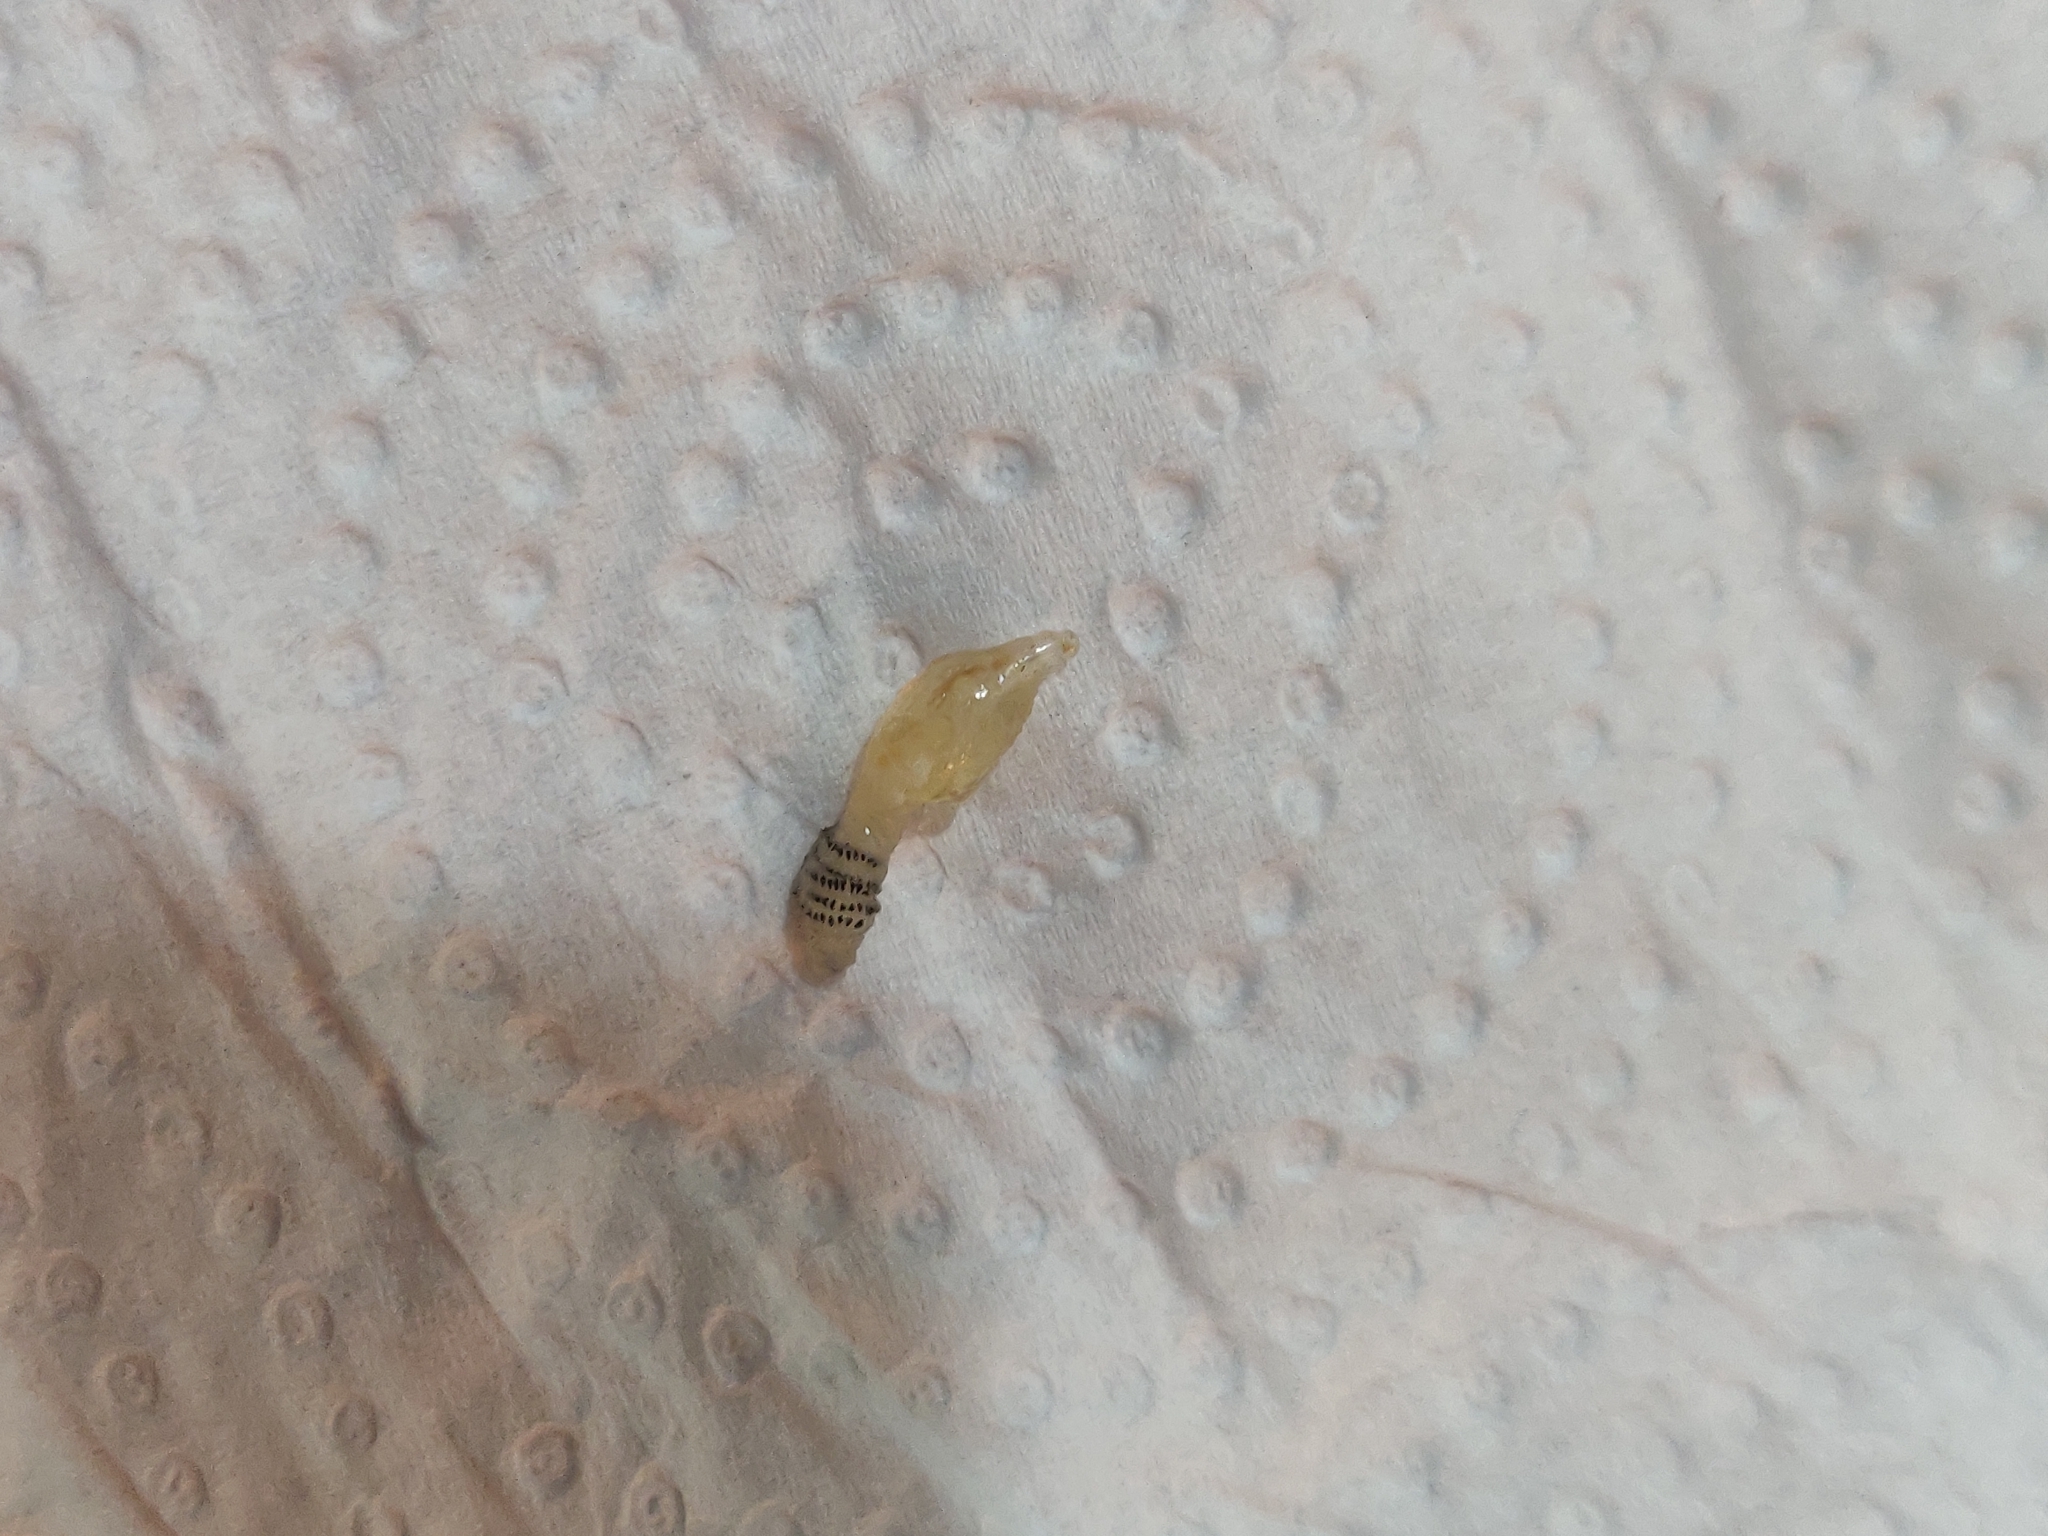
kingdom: Animalia
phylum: Arthropoda
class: Insecta
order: Diptera
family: Oestridae
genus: Dermatobia
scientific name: Dermatobia hominis
